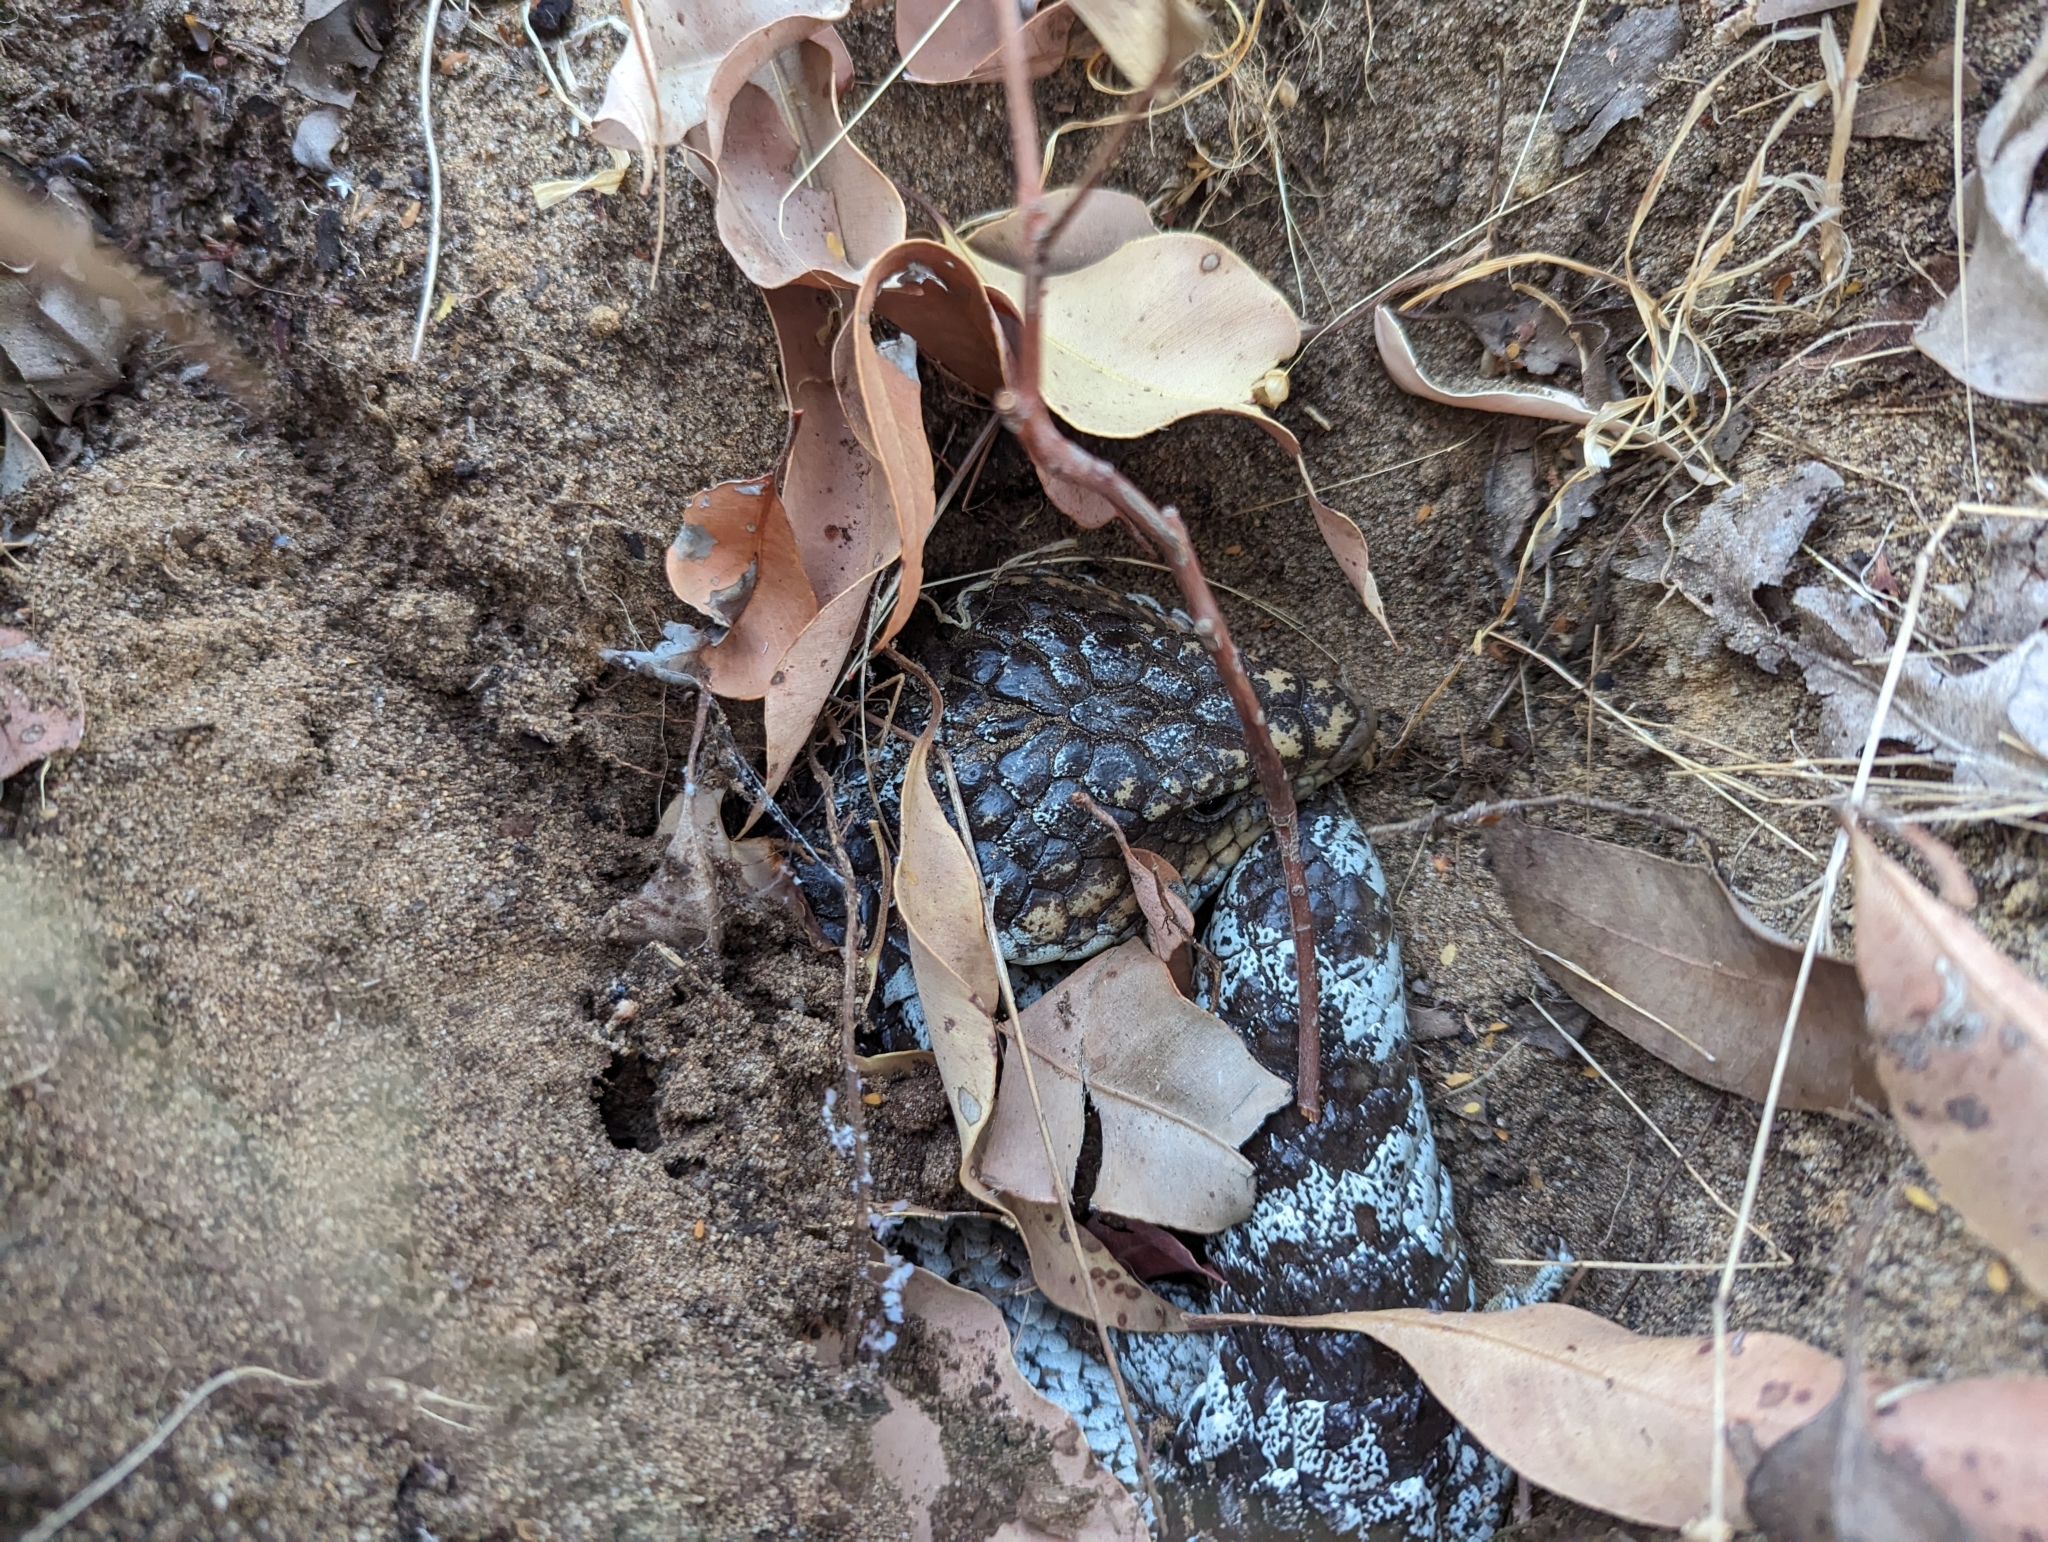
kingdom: Animalia
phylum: Chordata
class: Squamata
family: Scincidae
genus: Tiliqua
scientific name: Tiliqua rugosa
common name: Pinecone lizard
